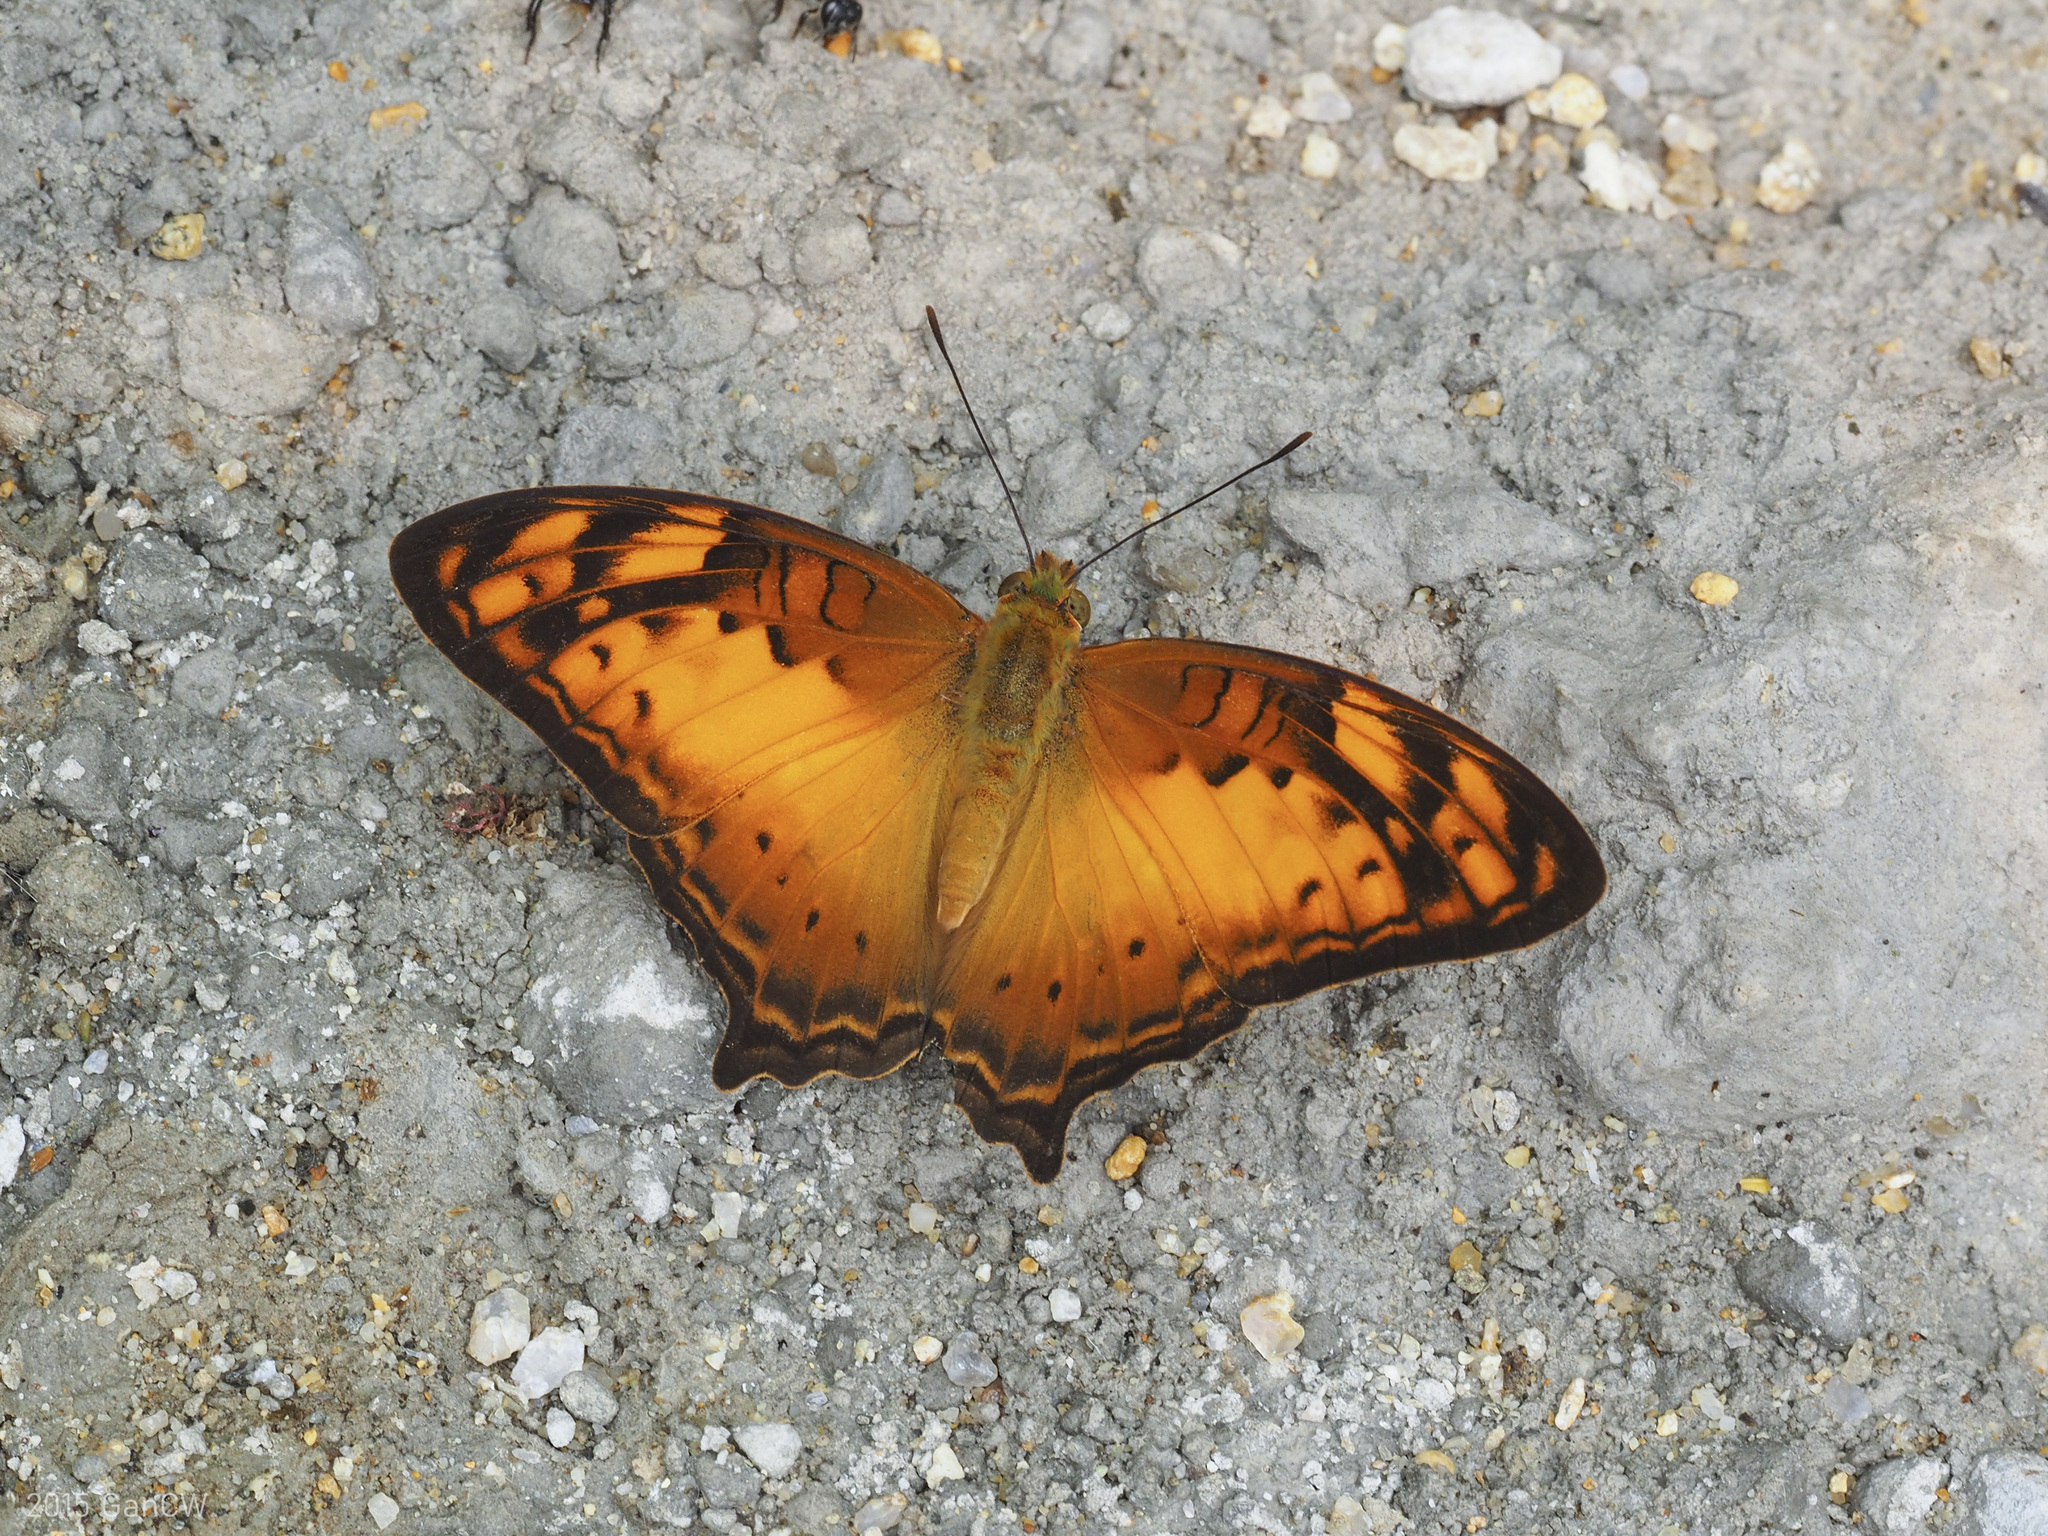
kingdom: Animalia
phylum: Arthropoda
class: Insecta
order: Lepidoptera
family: Nymphalidae
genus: Vagrans
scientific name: Vagrans sinha
